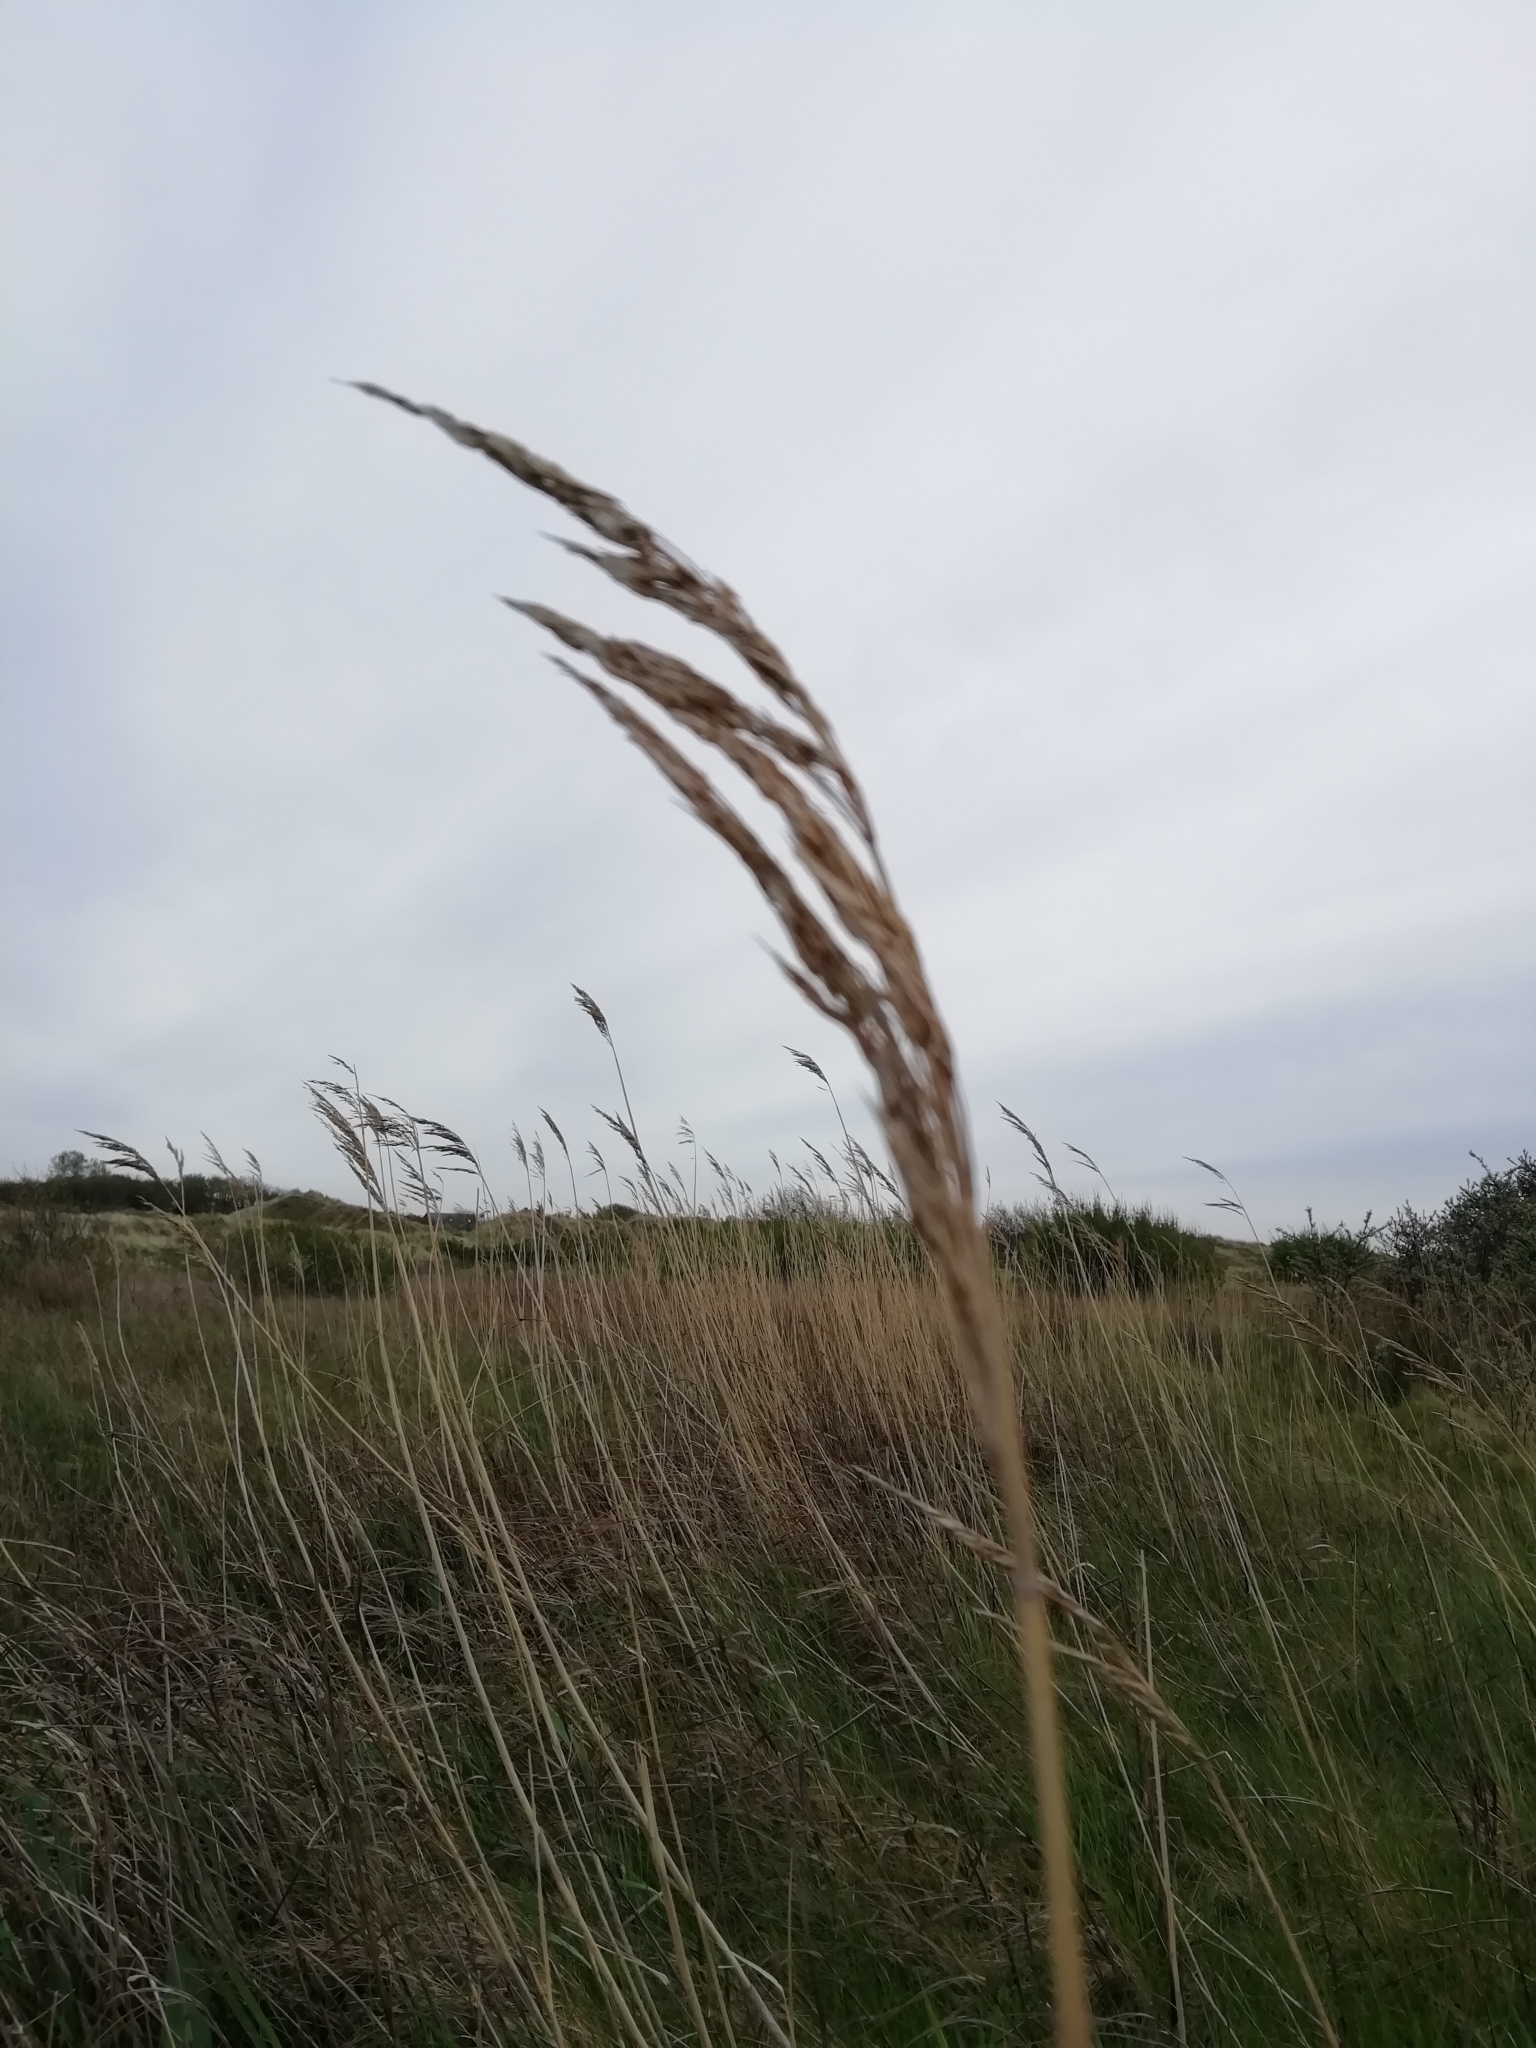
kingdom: Plantae
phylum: Tracheophyta
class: Liliopsida
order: Poales
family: Poaceae
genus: Phragmites
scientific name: Phragmites australis
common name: Common reed
